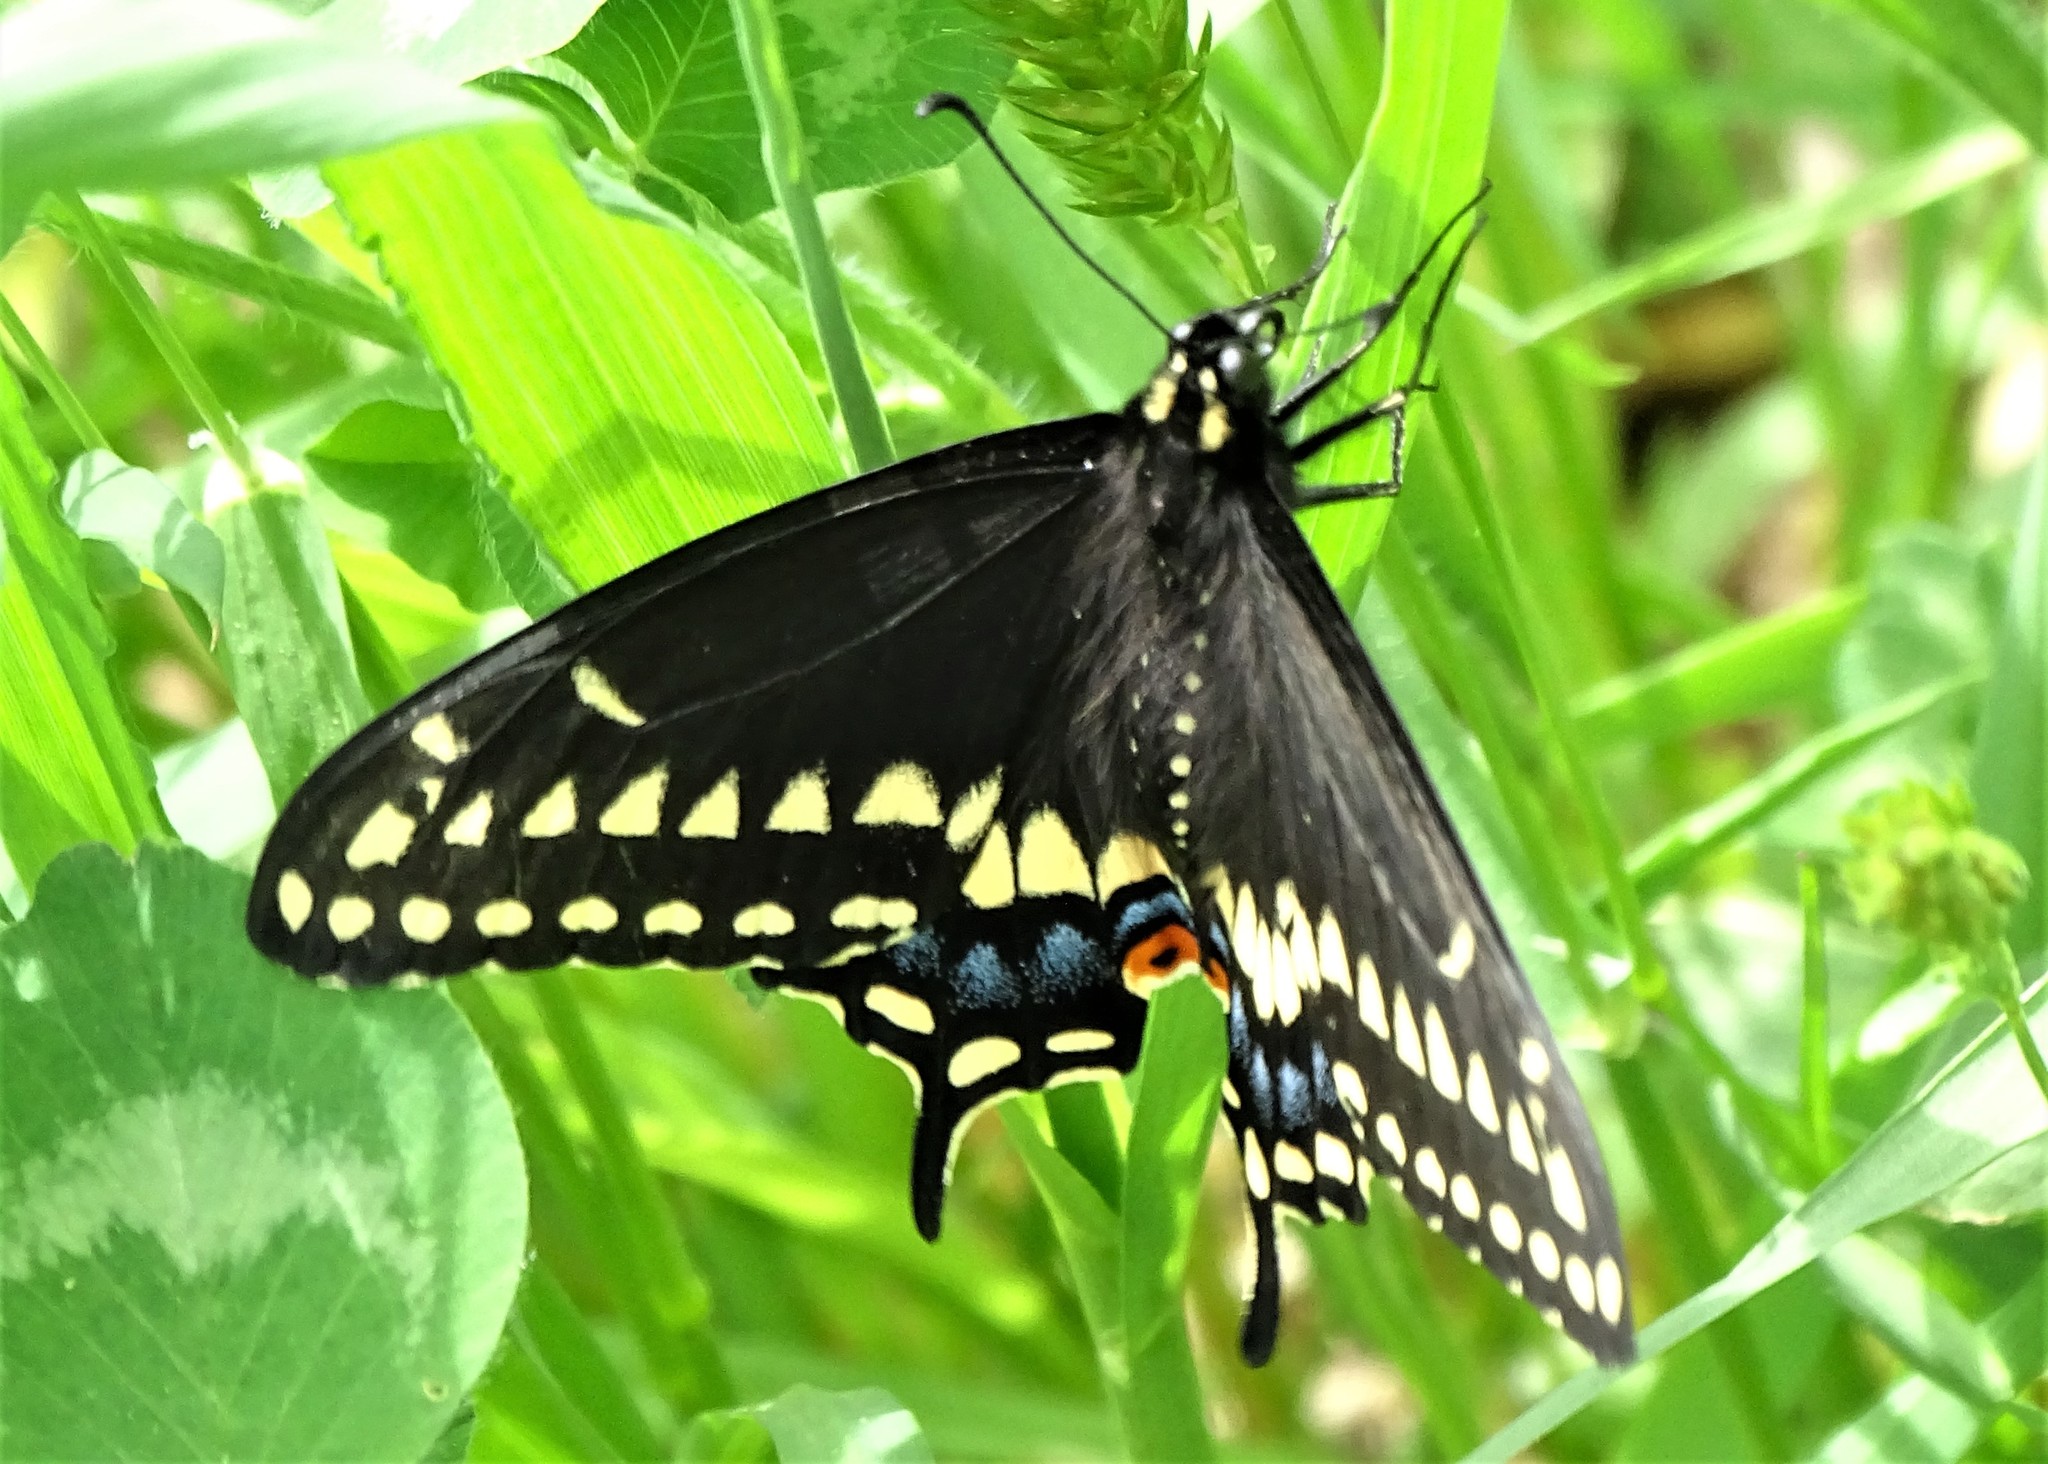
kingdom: Animalia
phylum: Arthropoda
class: Insecta
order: Lepidoptera
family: Papilionidae
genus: Papilio
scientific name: Papilio polyxenes
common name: Black swallowtail
